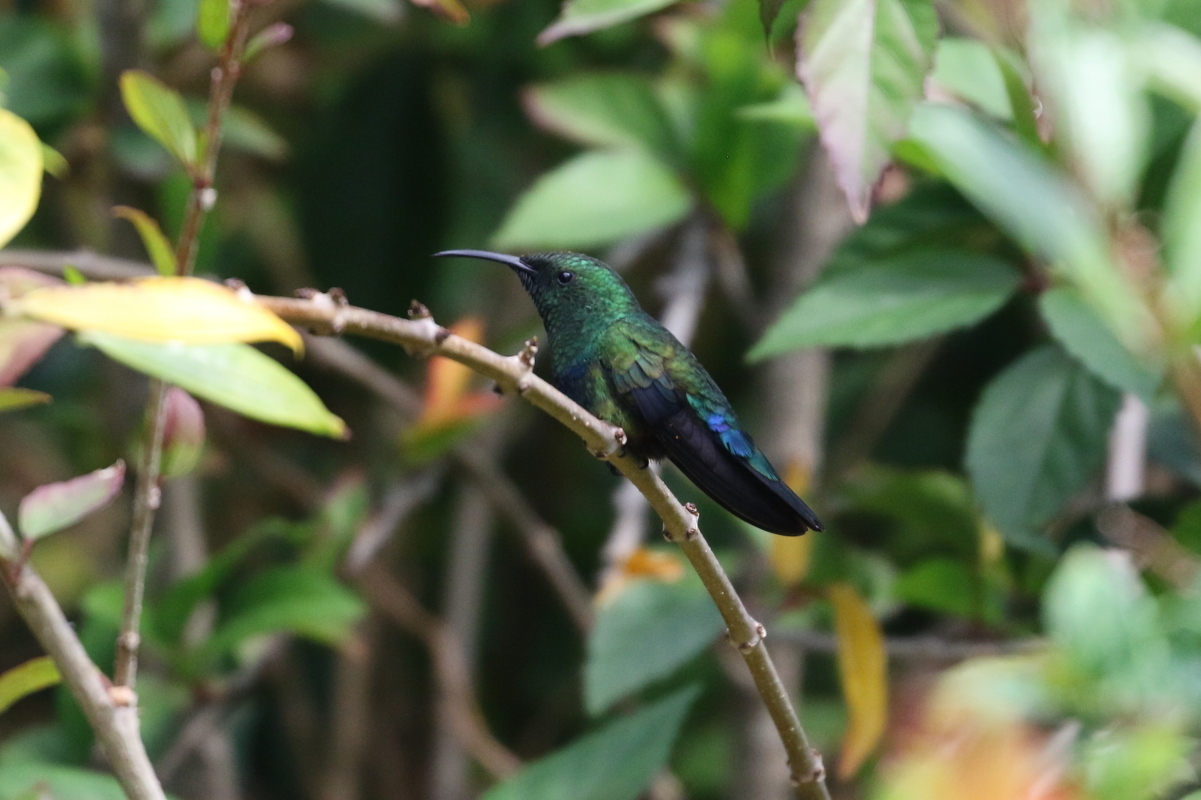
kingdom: Animalia
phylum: Chordata
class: Aves
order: Apodiformes
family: Trochilidae
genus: Eulampis
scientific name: Eulampis holosericeus
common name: Green-throated carib
